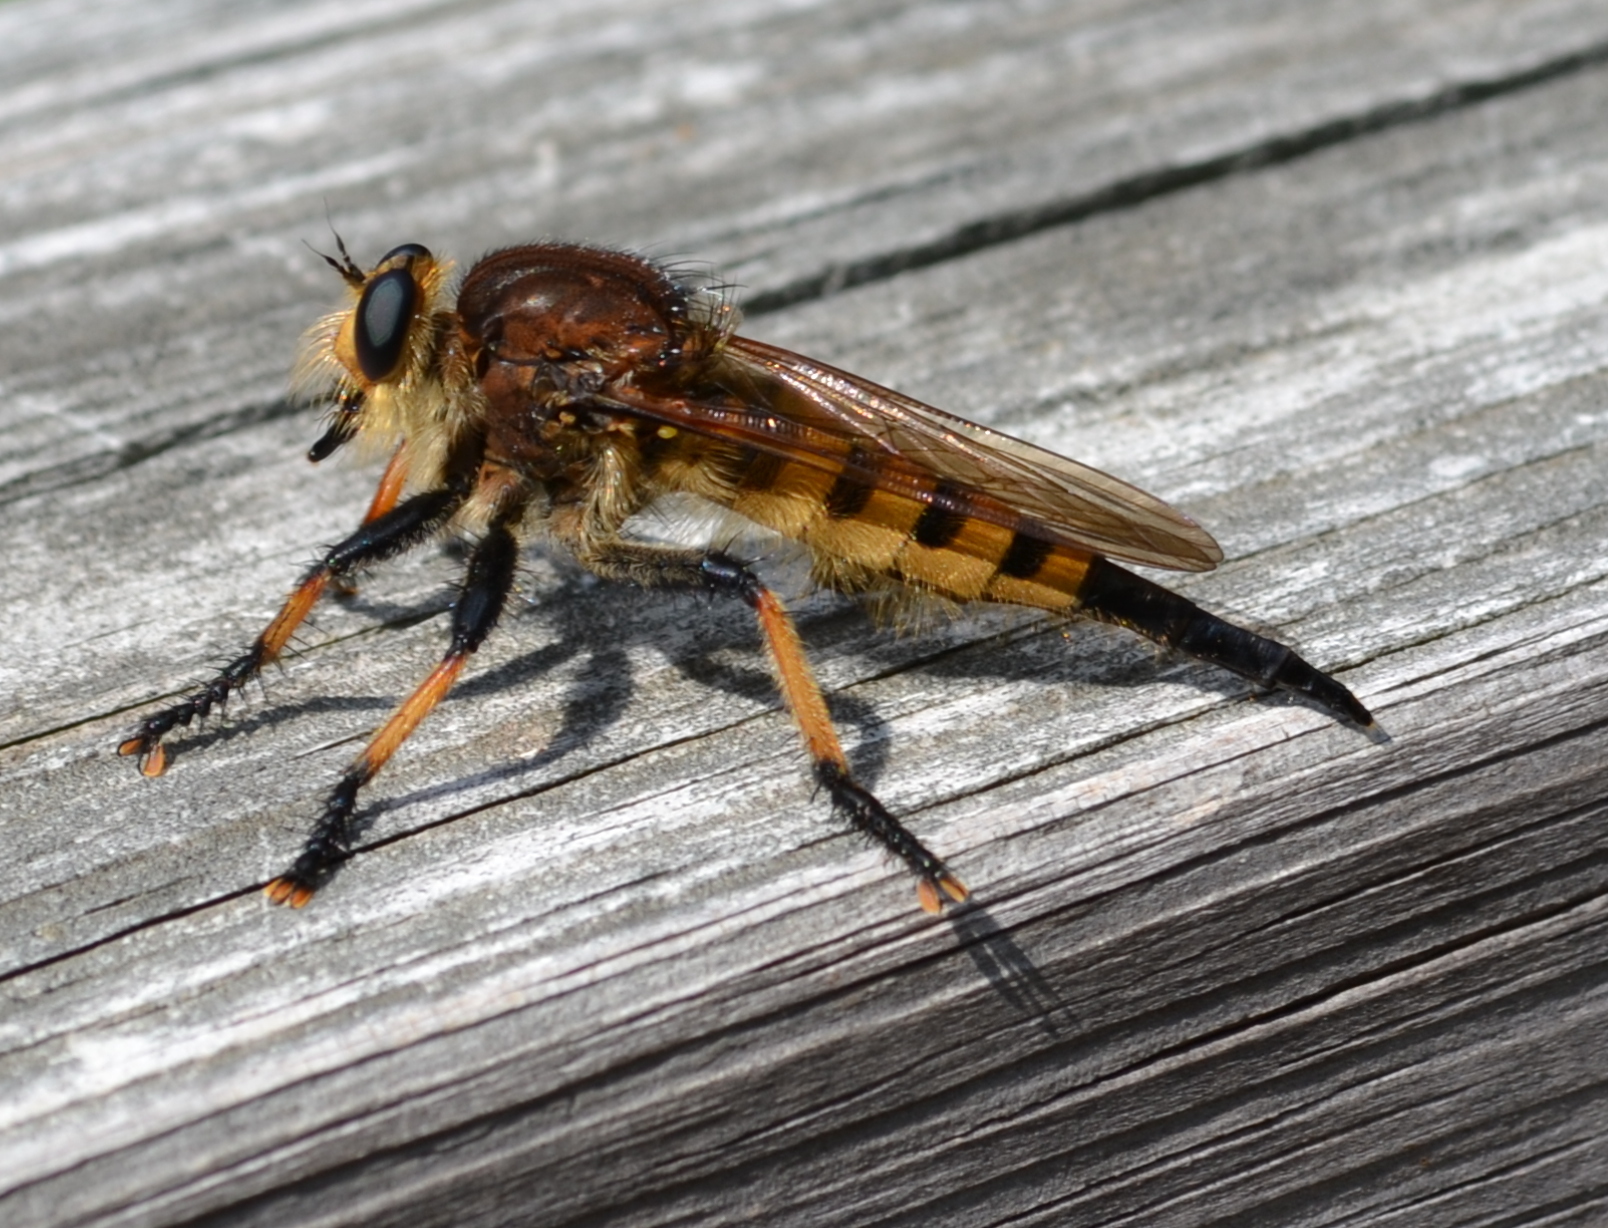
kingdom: Animalia
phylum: Arthropoda
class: Insecta
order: Diptera
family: Asilidae
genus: Promachus
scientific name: Promachus rufipes
